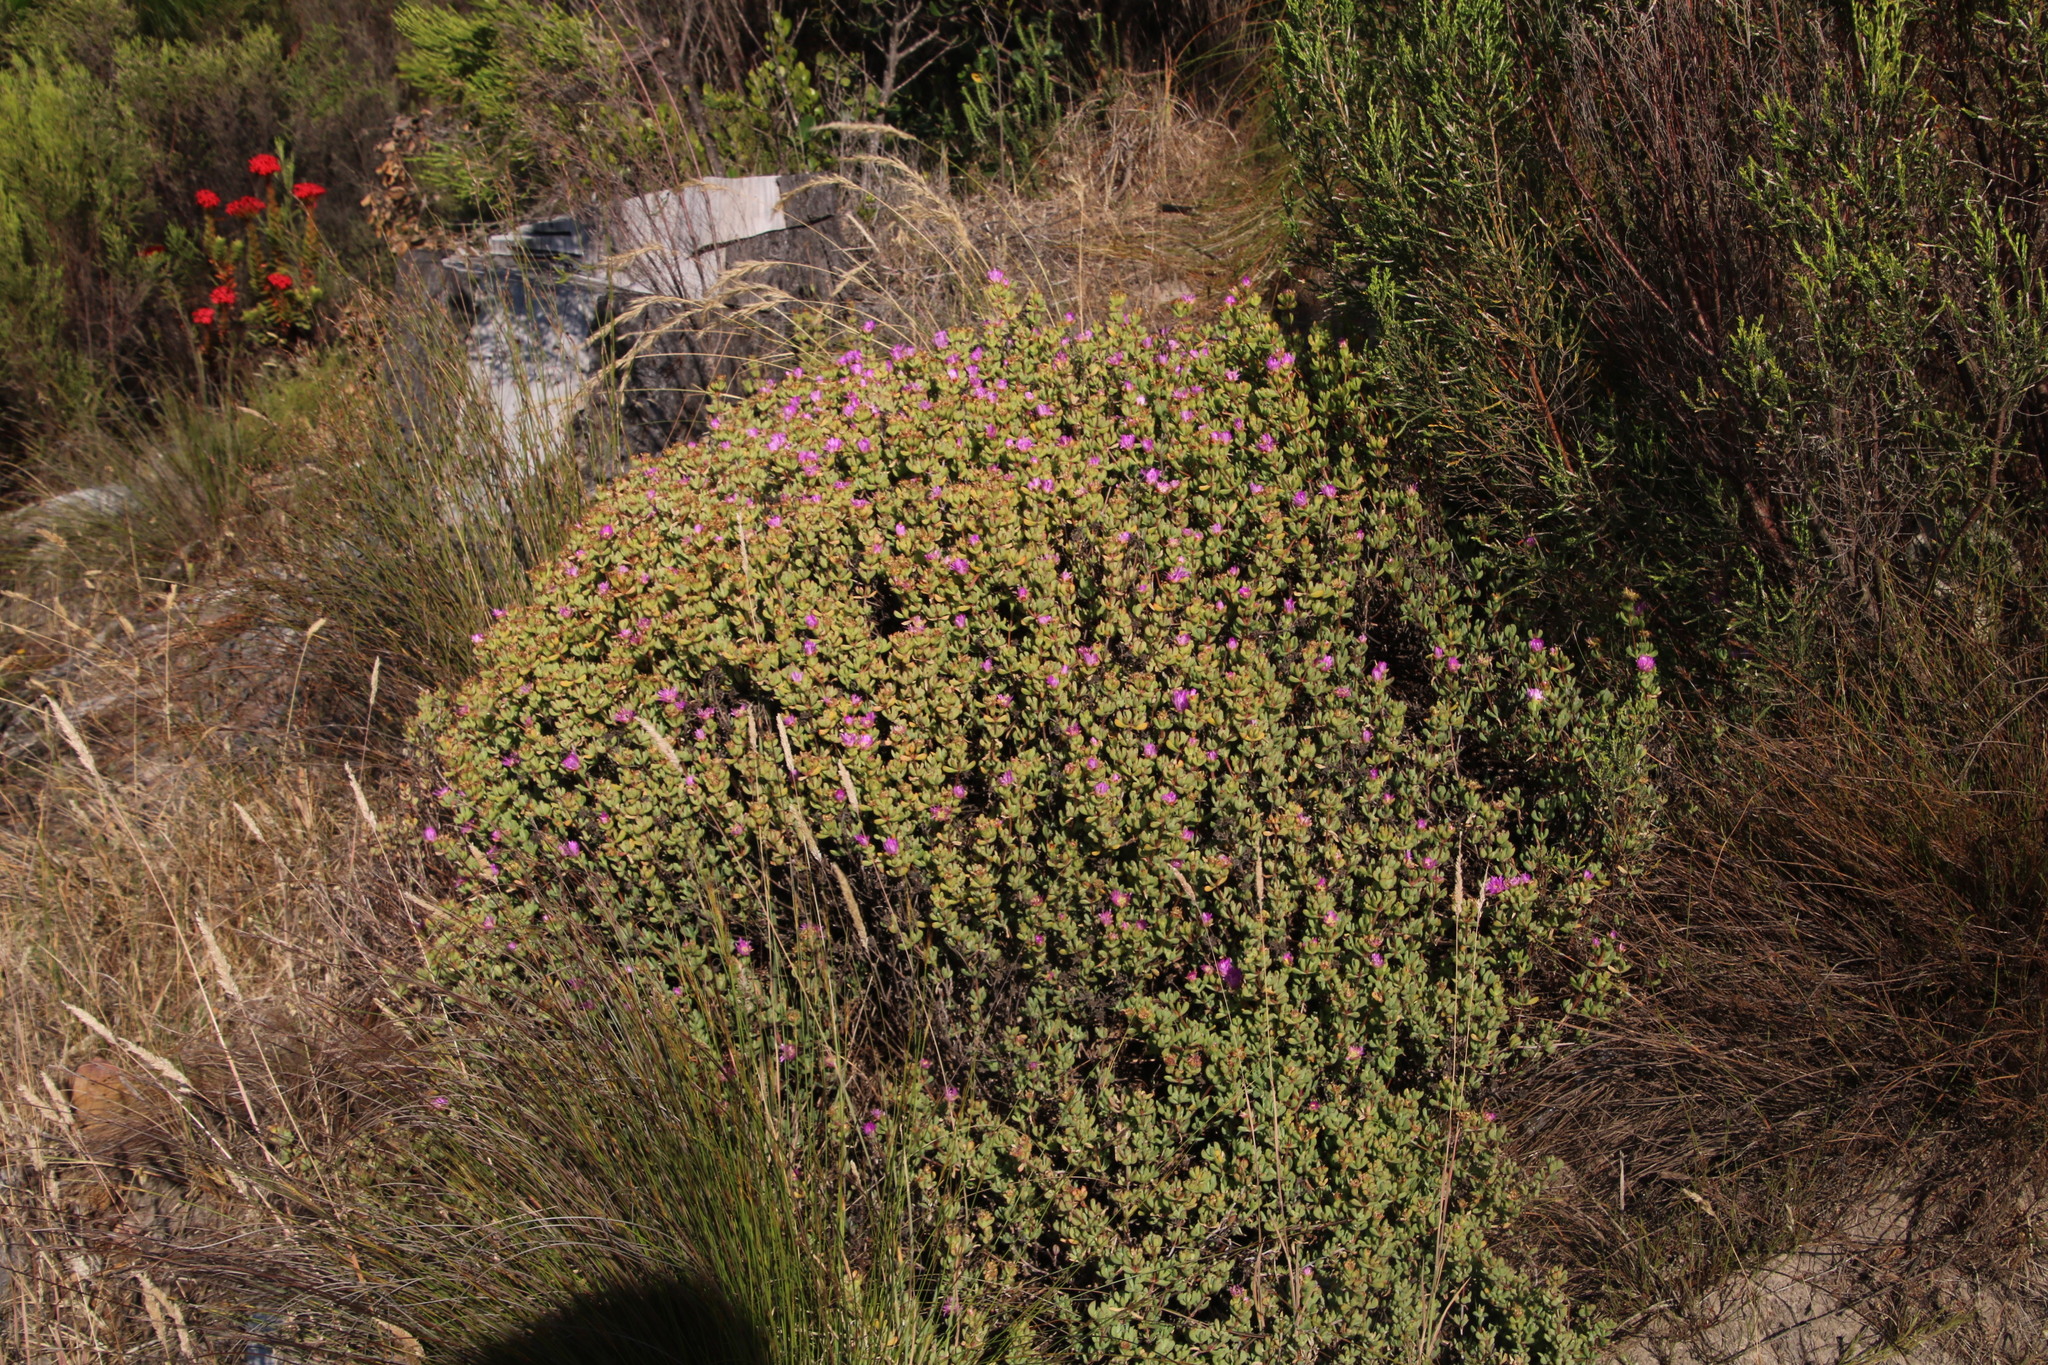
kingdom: Plantae
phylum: Tracheophyta
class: Magnoliopsida
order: Caryophyllales
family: Aizoaceae
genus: Oscularia
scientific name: Oscularia falciformis
